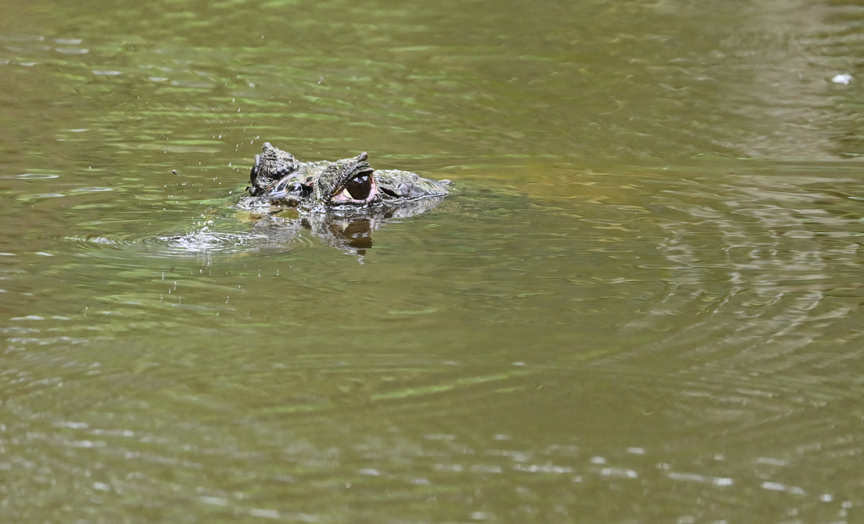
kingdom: Animalia
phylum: Chordata
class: Crocodylia
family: Alligatoridae
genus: Caiman
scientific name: Caiman crocodilus
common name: Common caiman
